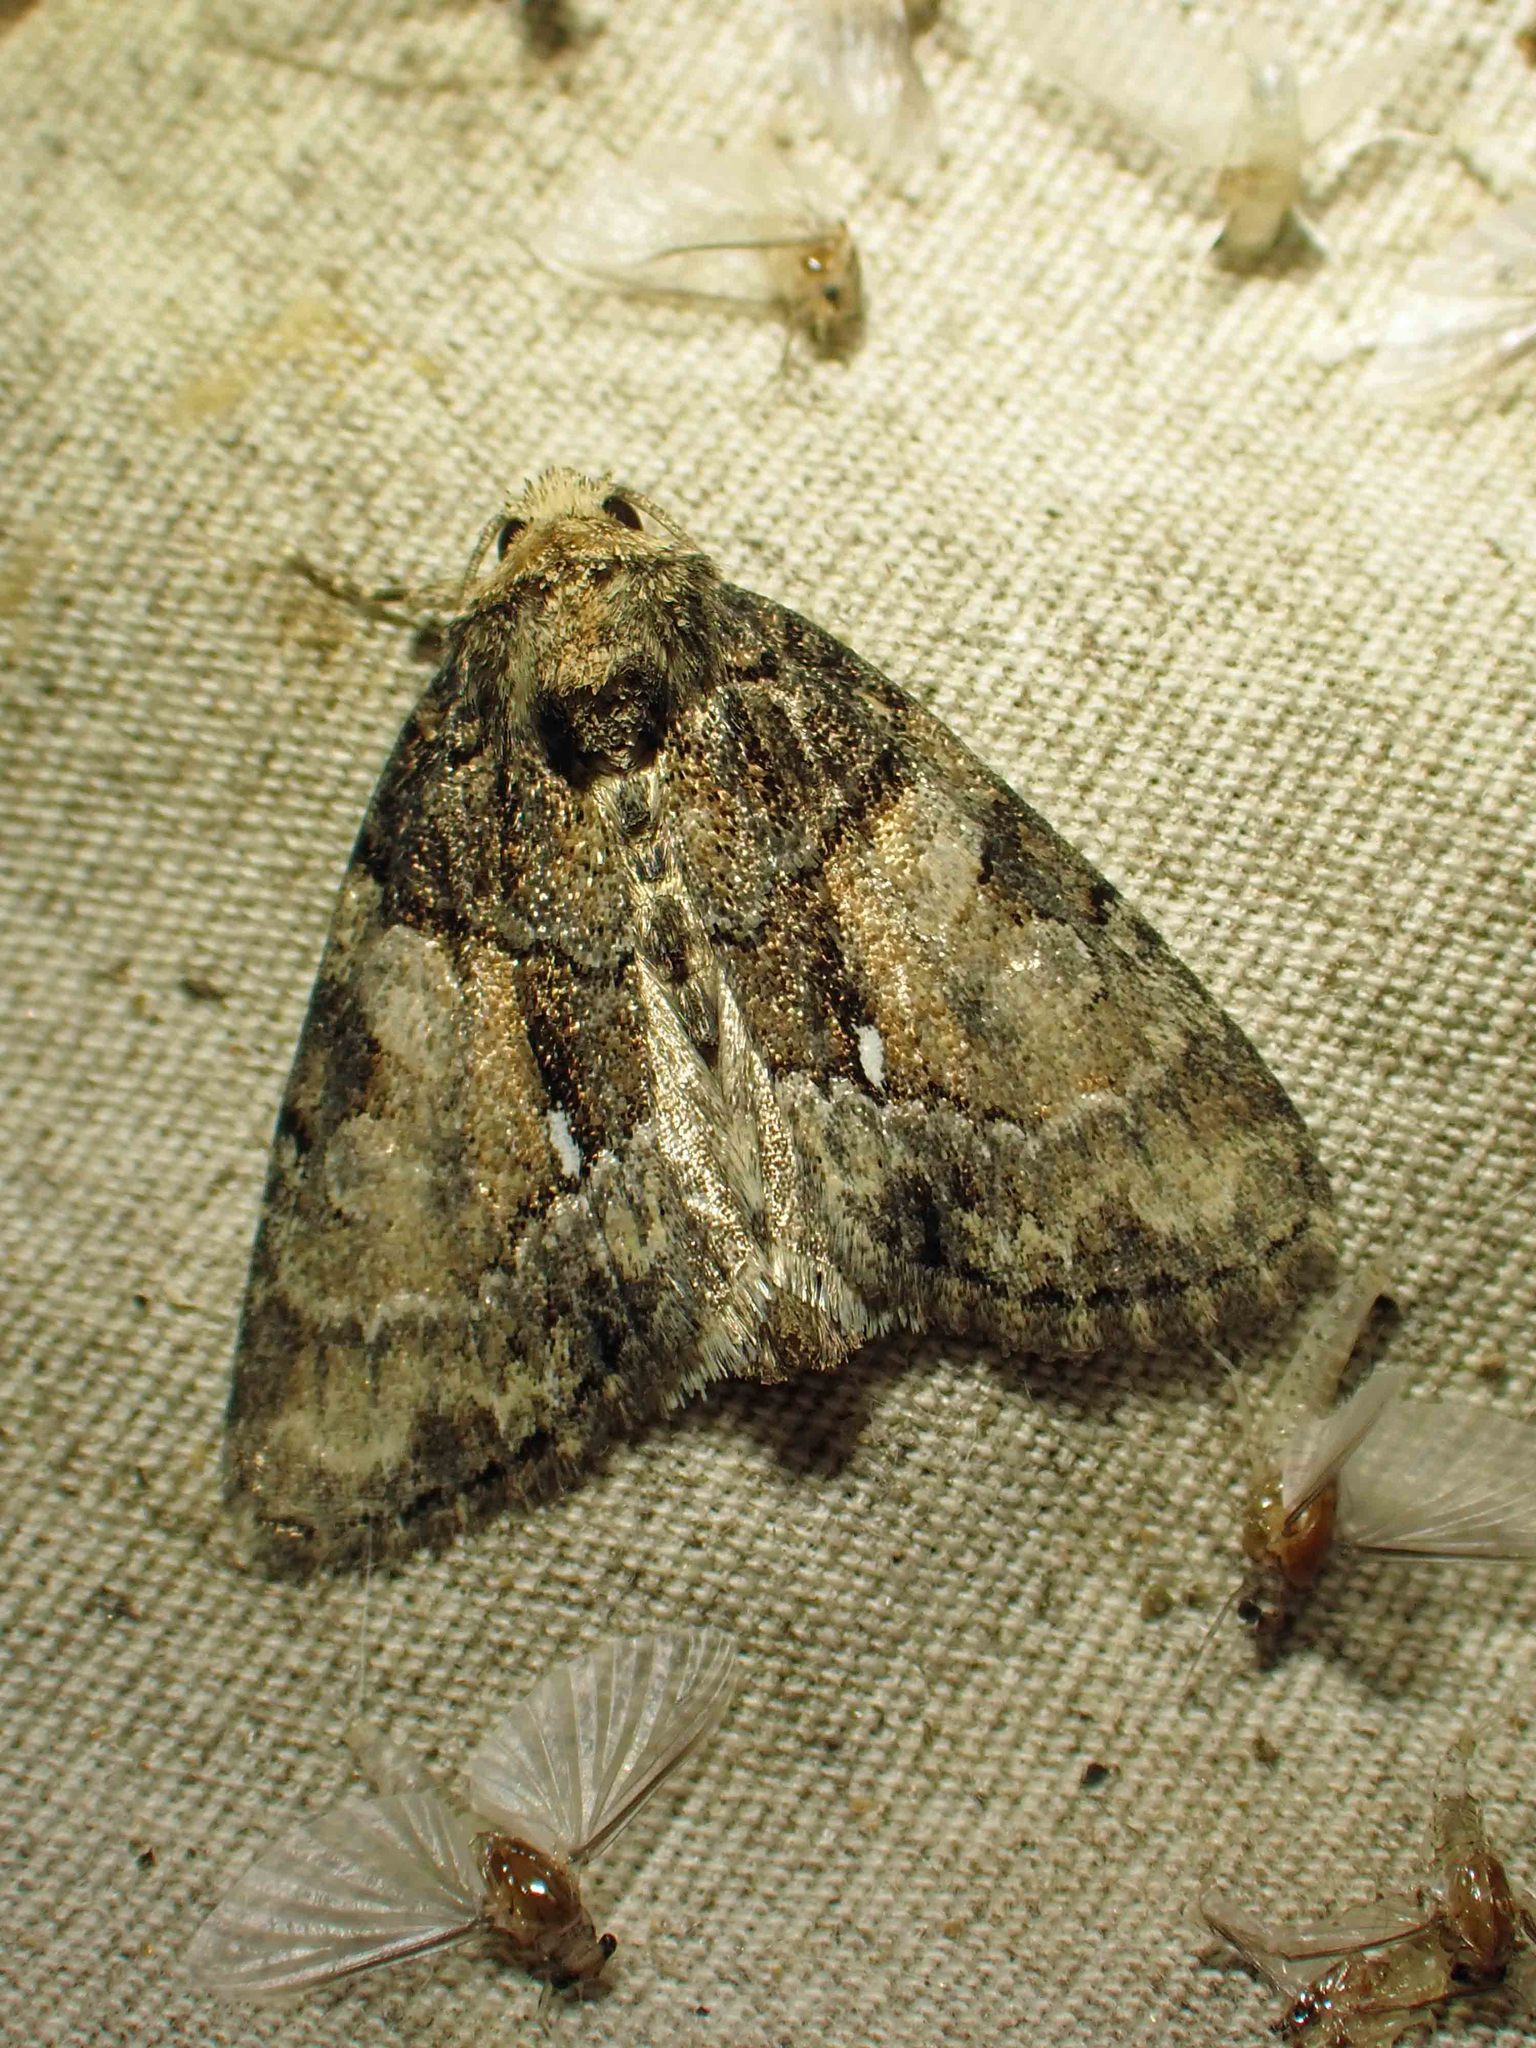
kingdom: Animalia
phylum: Arthropoda
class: Insecta
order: Lepidoptera
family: Noctuidae
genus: Chytonix
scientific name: Chytonix palliatricula
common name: Cloaked marvel
